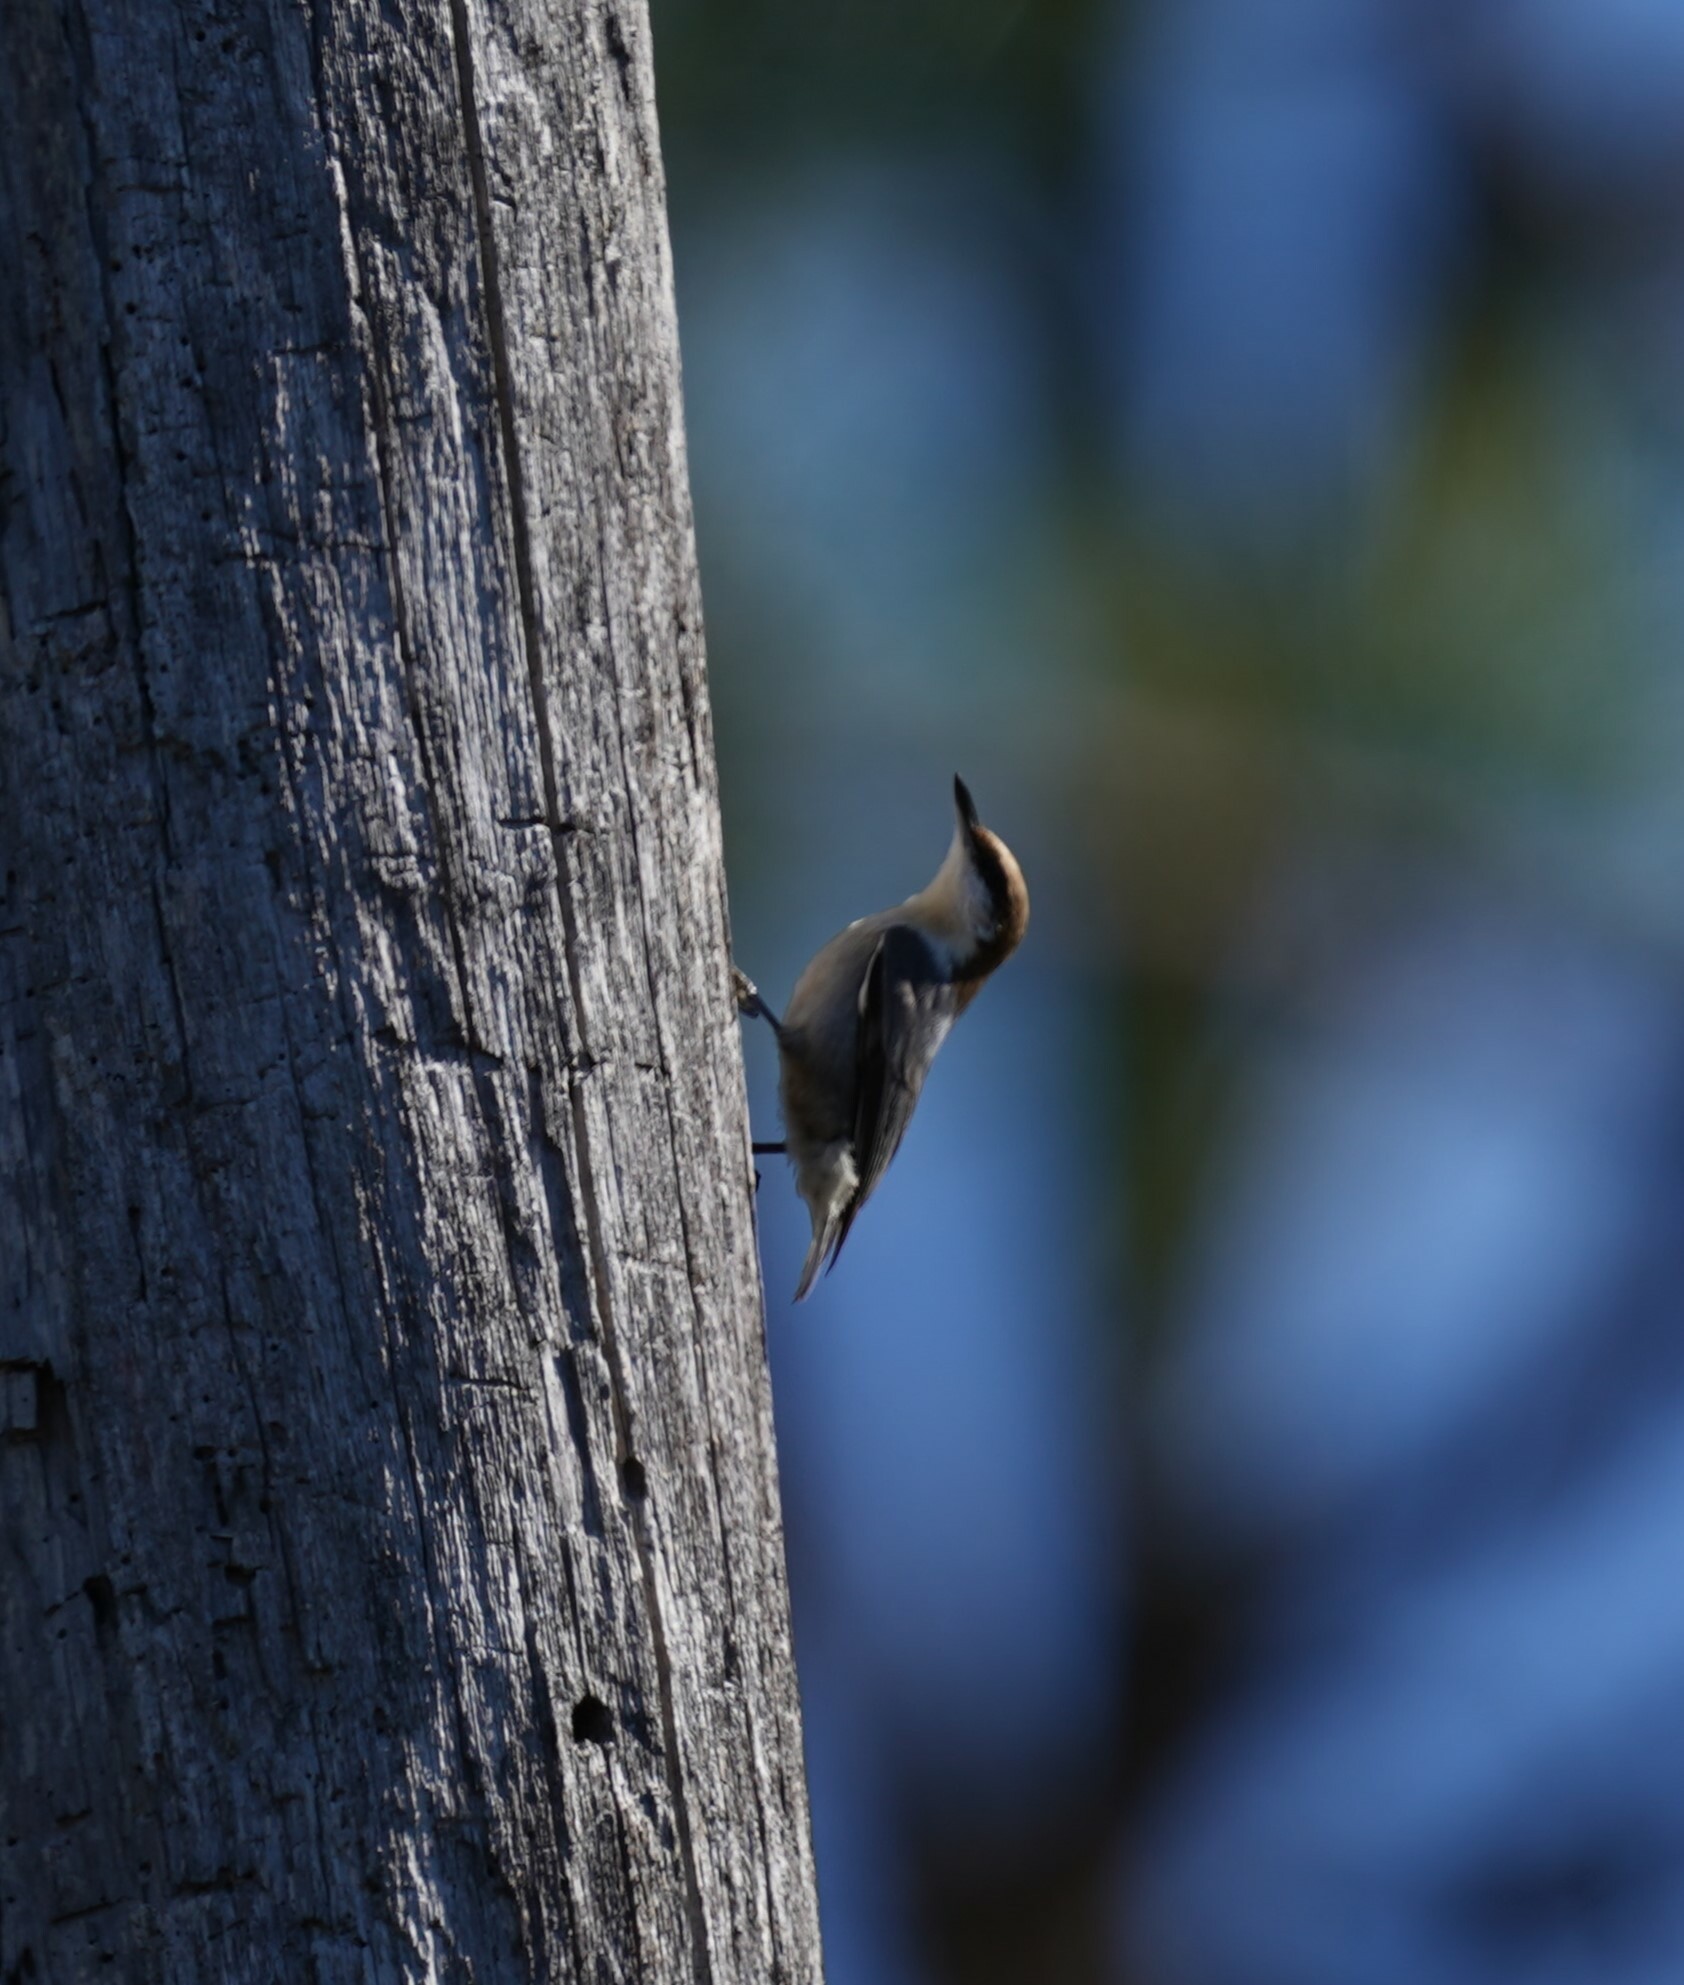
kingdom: Animalia
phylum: Chordata
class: Aves
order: Passeriformes
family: Sittidae
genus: Sitta
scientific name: Sitta pusilla
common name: Brown-headed nuthatch
